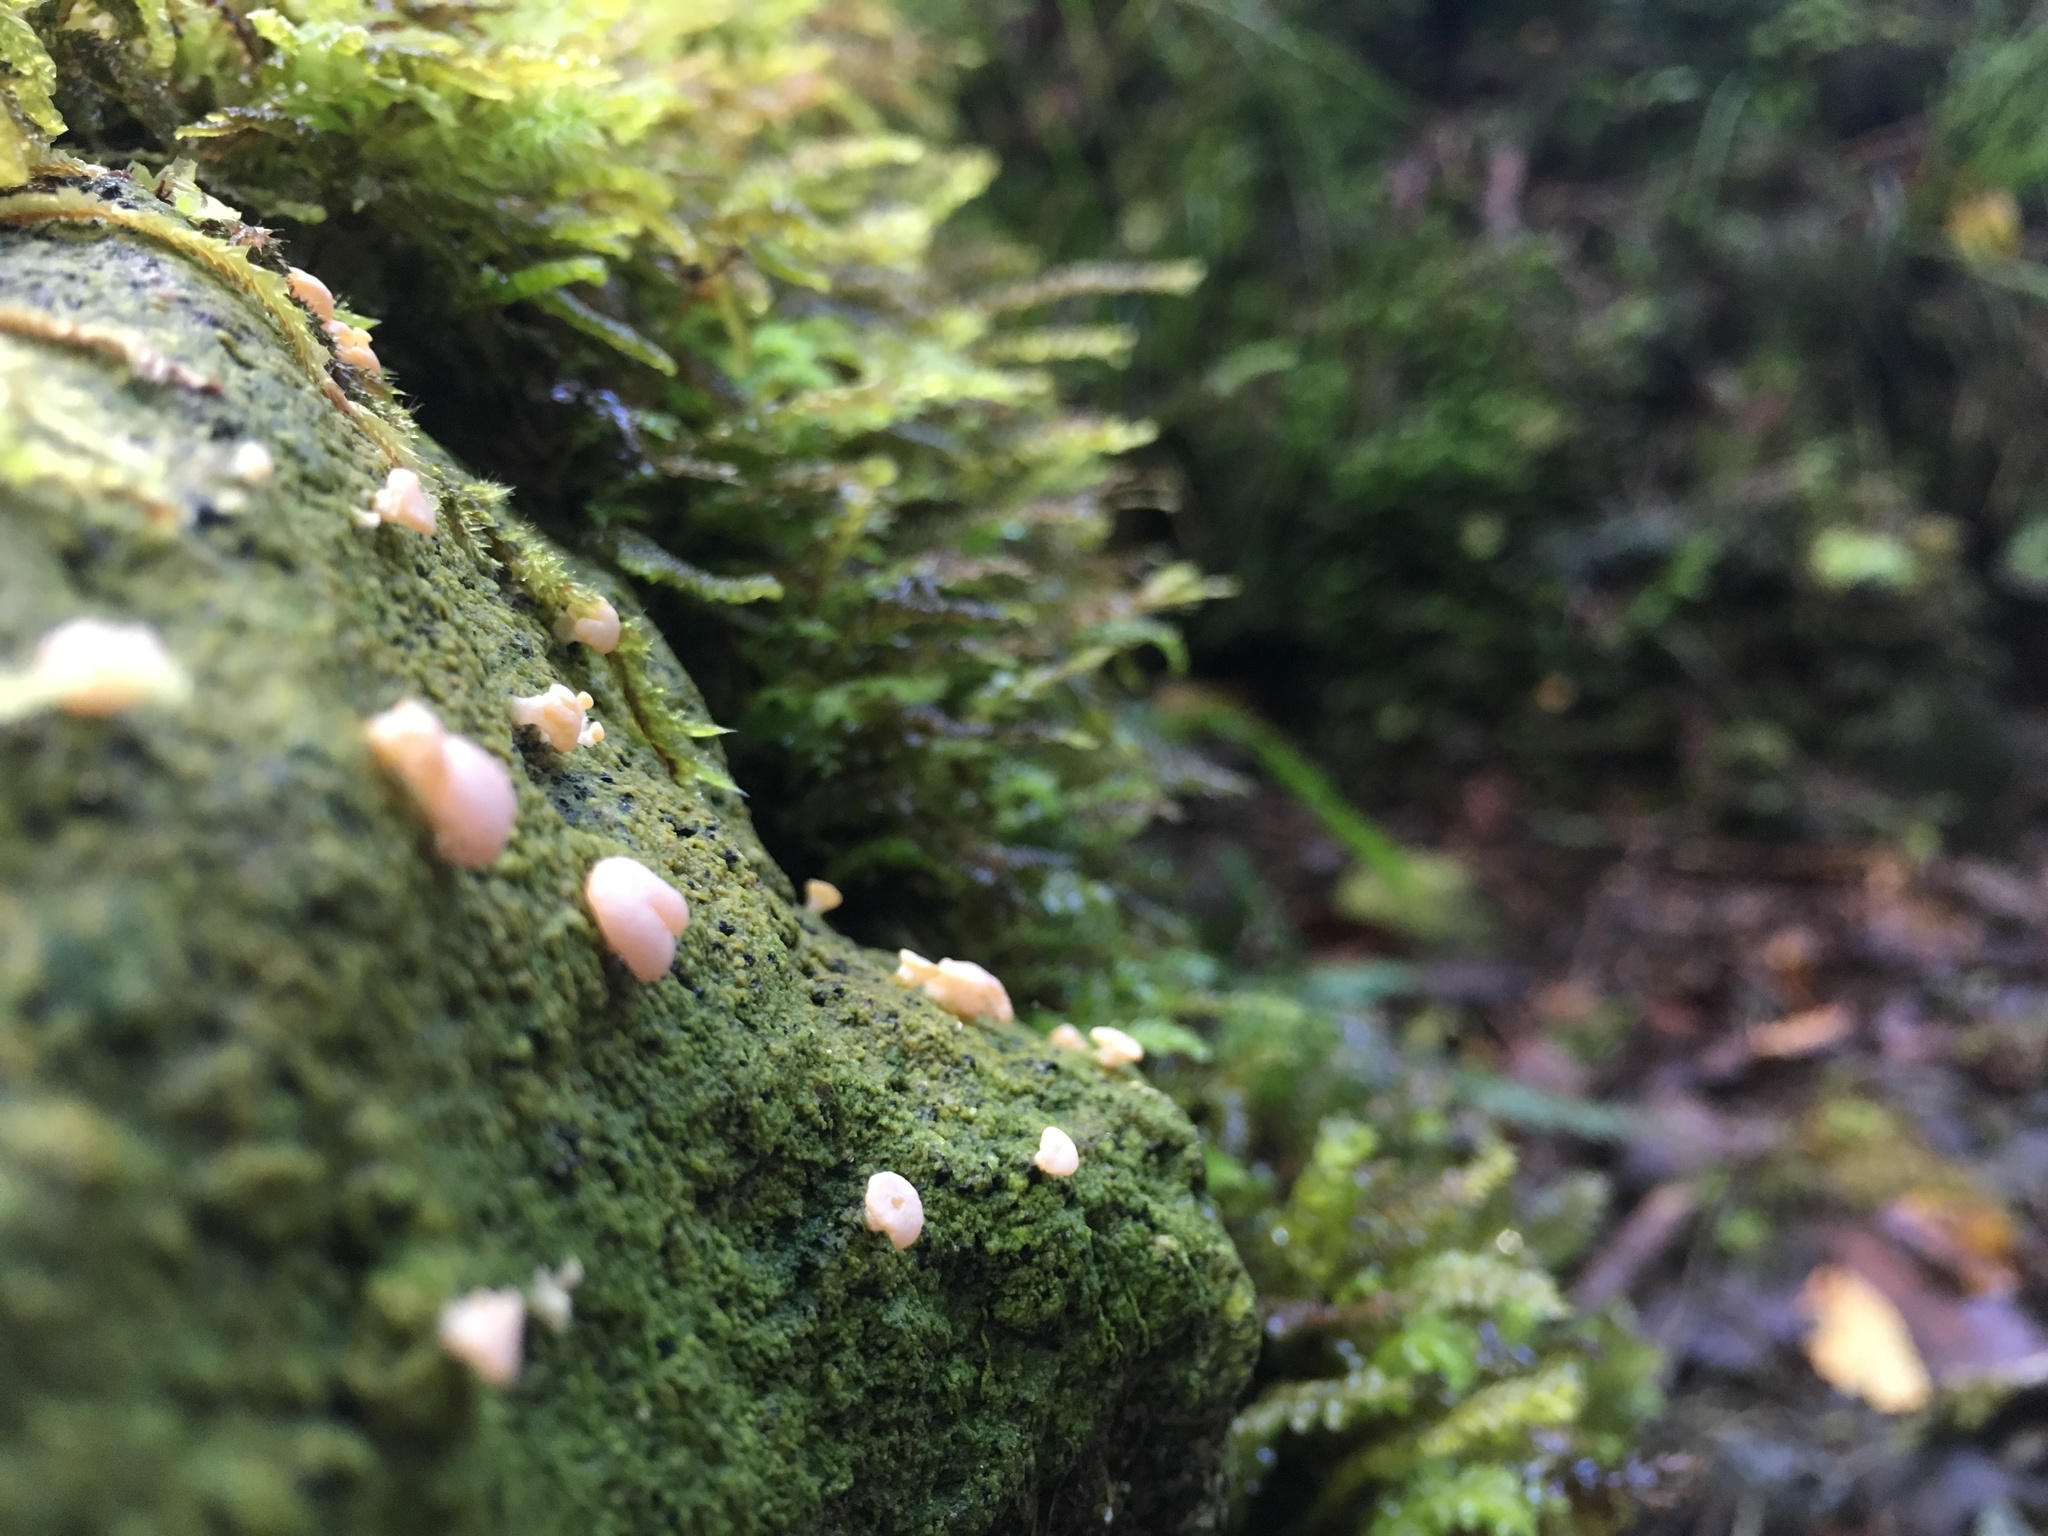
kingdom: Fungi
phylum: Ascomycota
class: Lecanoromycetes
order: Pertusariales
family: Icmadophilaceae
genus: Dibaeis
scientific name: Dibaeis absoluta
